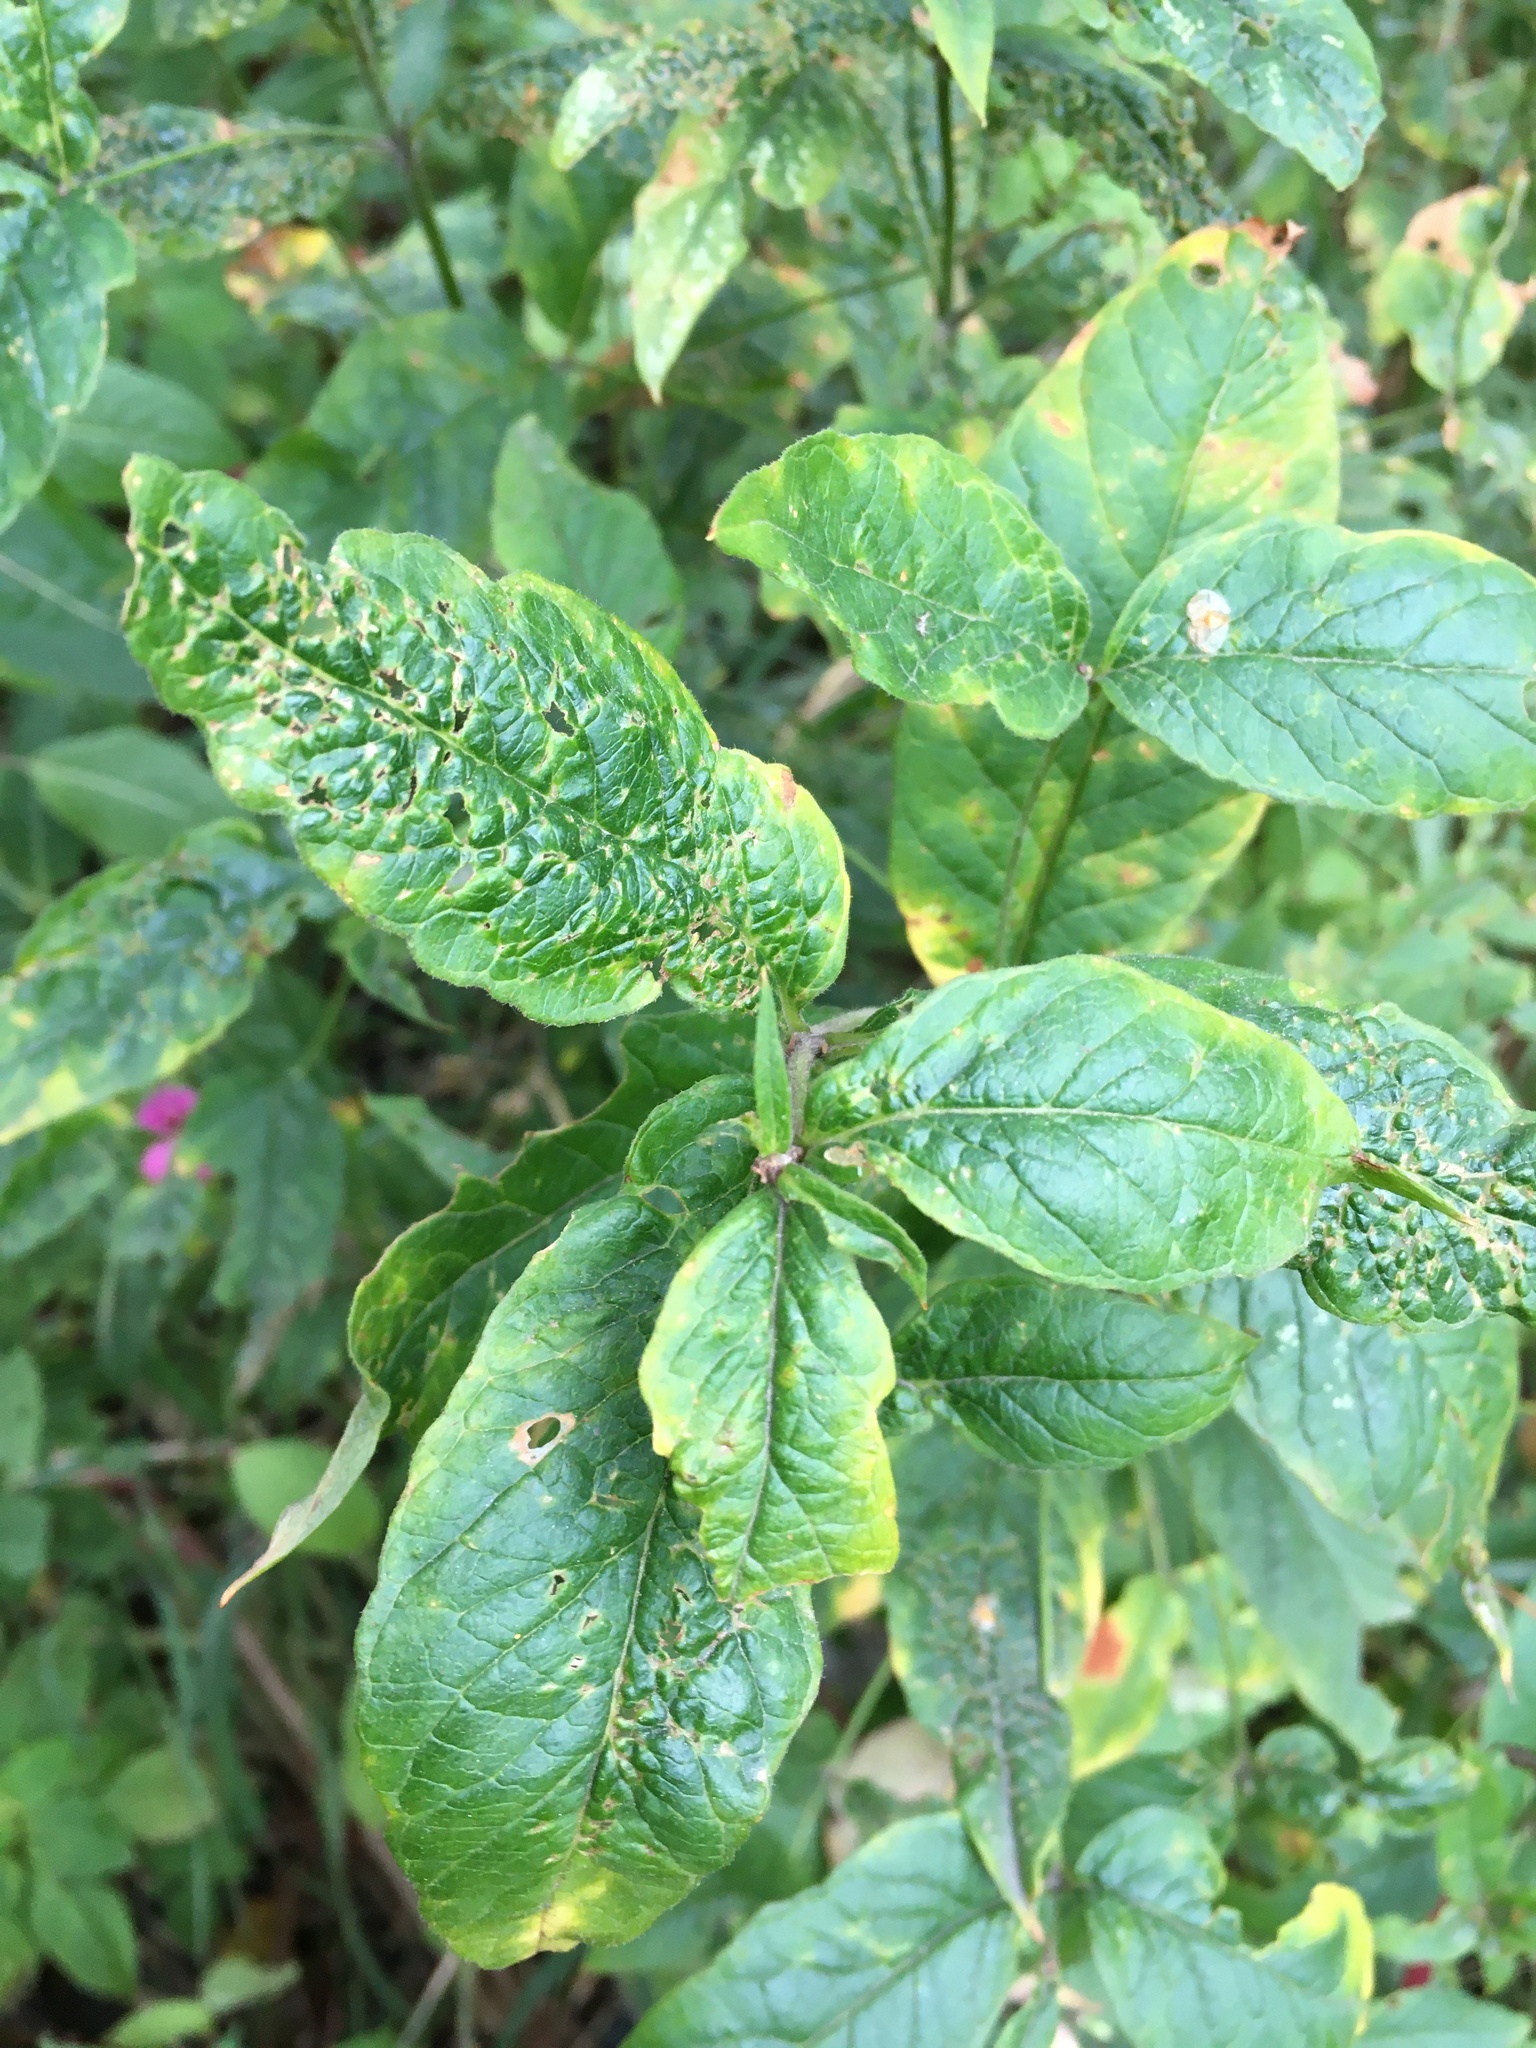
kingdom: Plantae
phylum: Tracheophyta
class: Magnoliopsida
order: Ericales
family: Primulaceae
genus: Lysimachia
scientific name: Lysimachia vulgaris
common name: Yellow loosestrife
